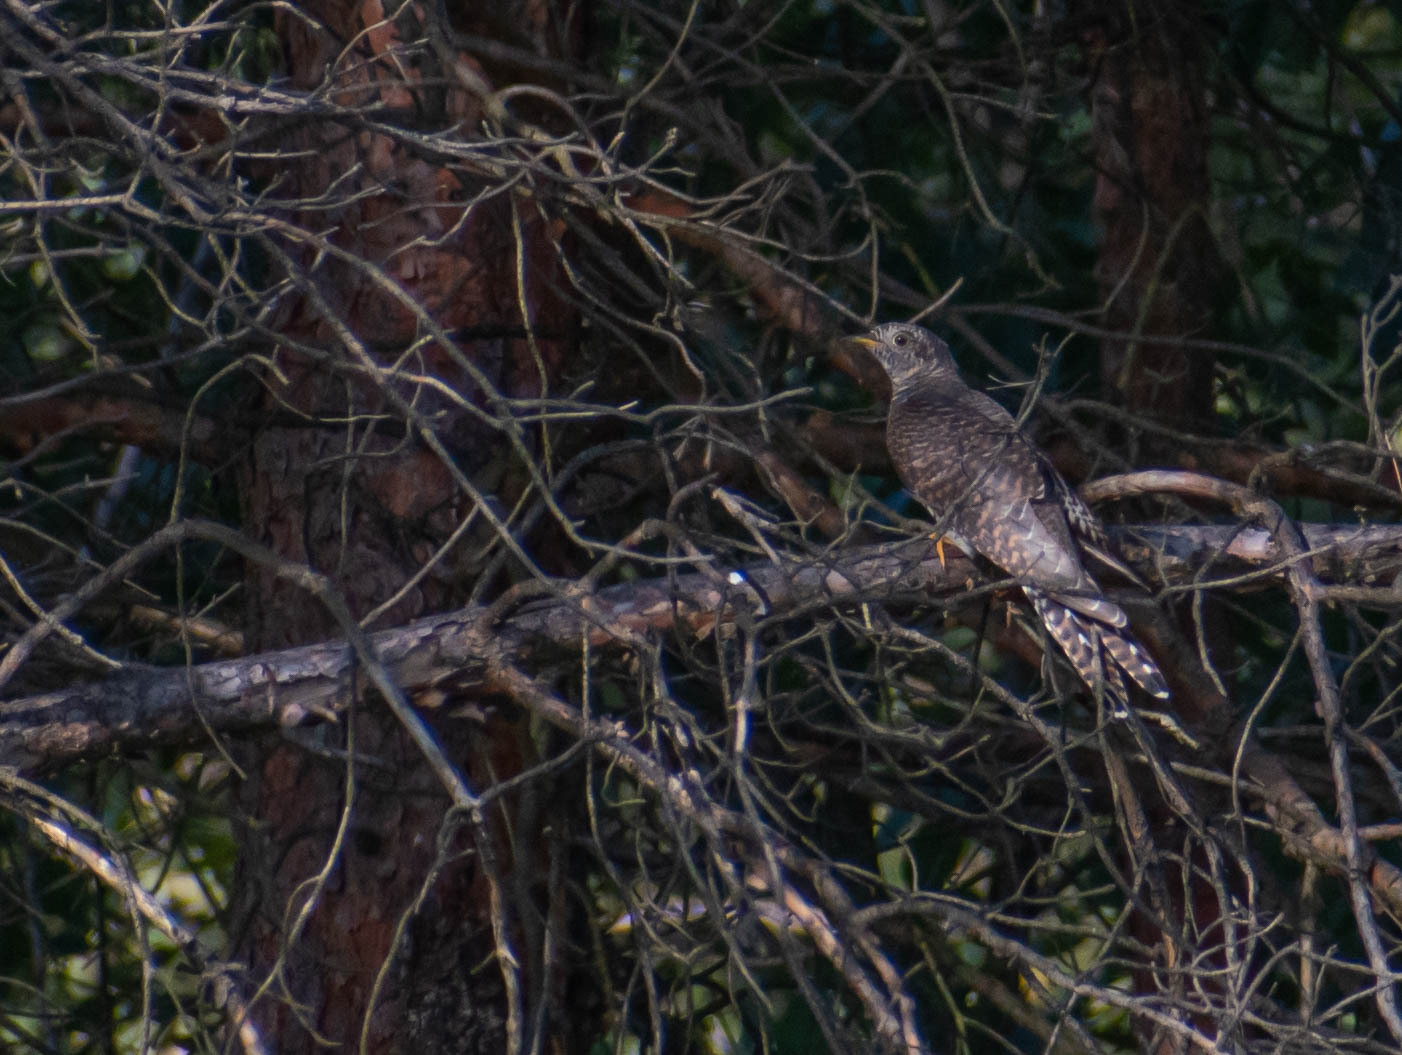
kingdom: Animalia
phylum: Chordata
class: Aves
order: Cuculiformes
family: Cuculidae
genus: Cuculus
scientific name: Cuculus canorus
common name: Common cuckoo
